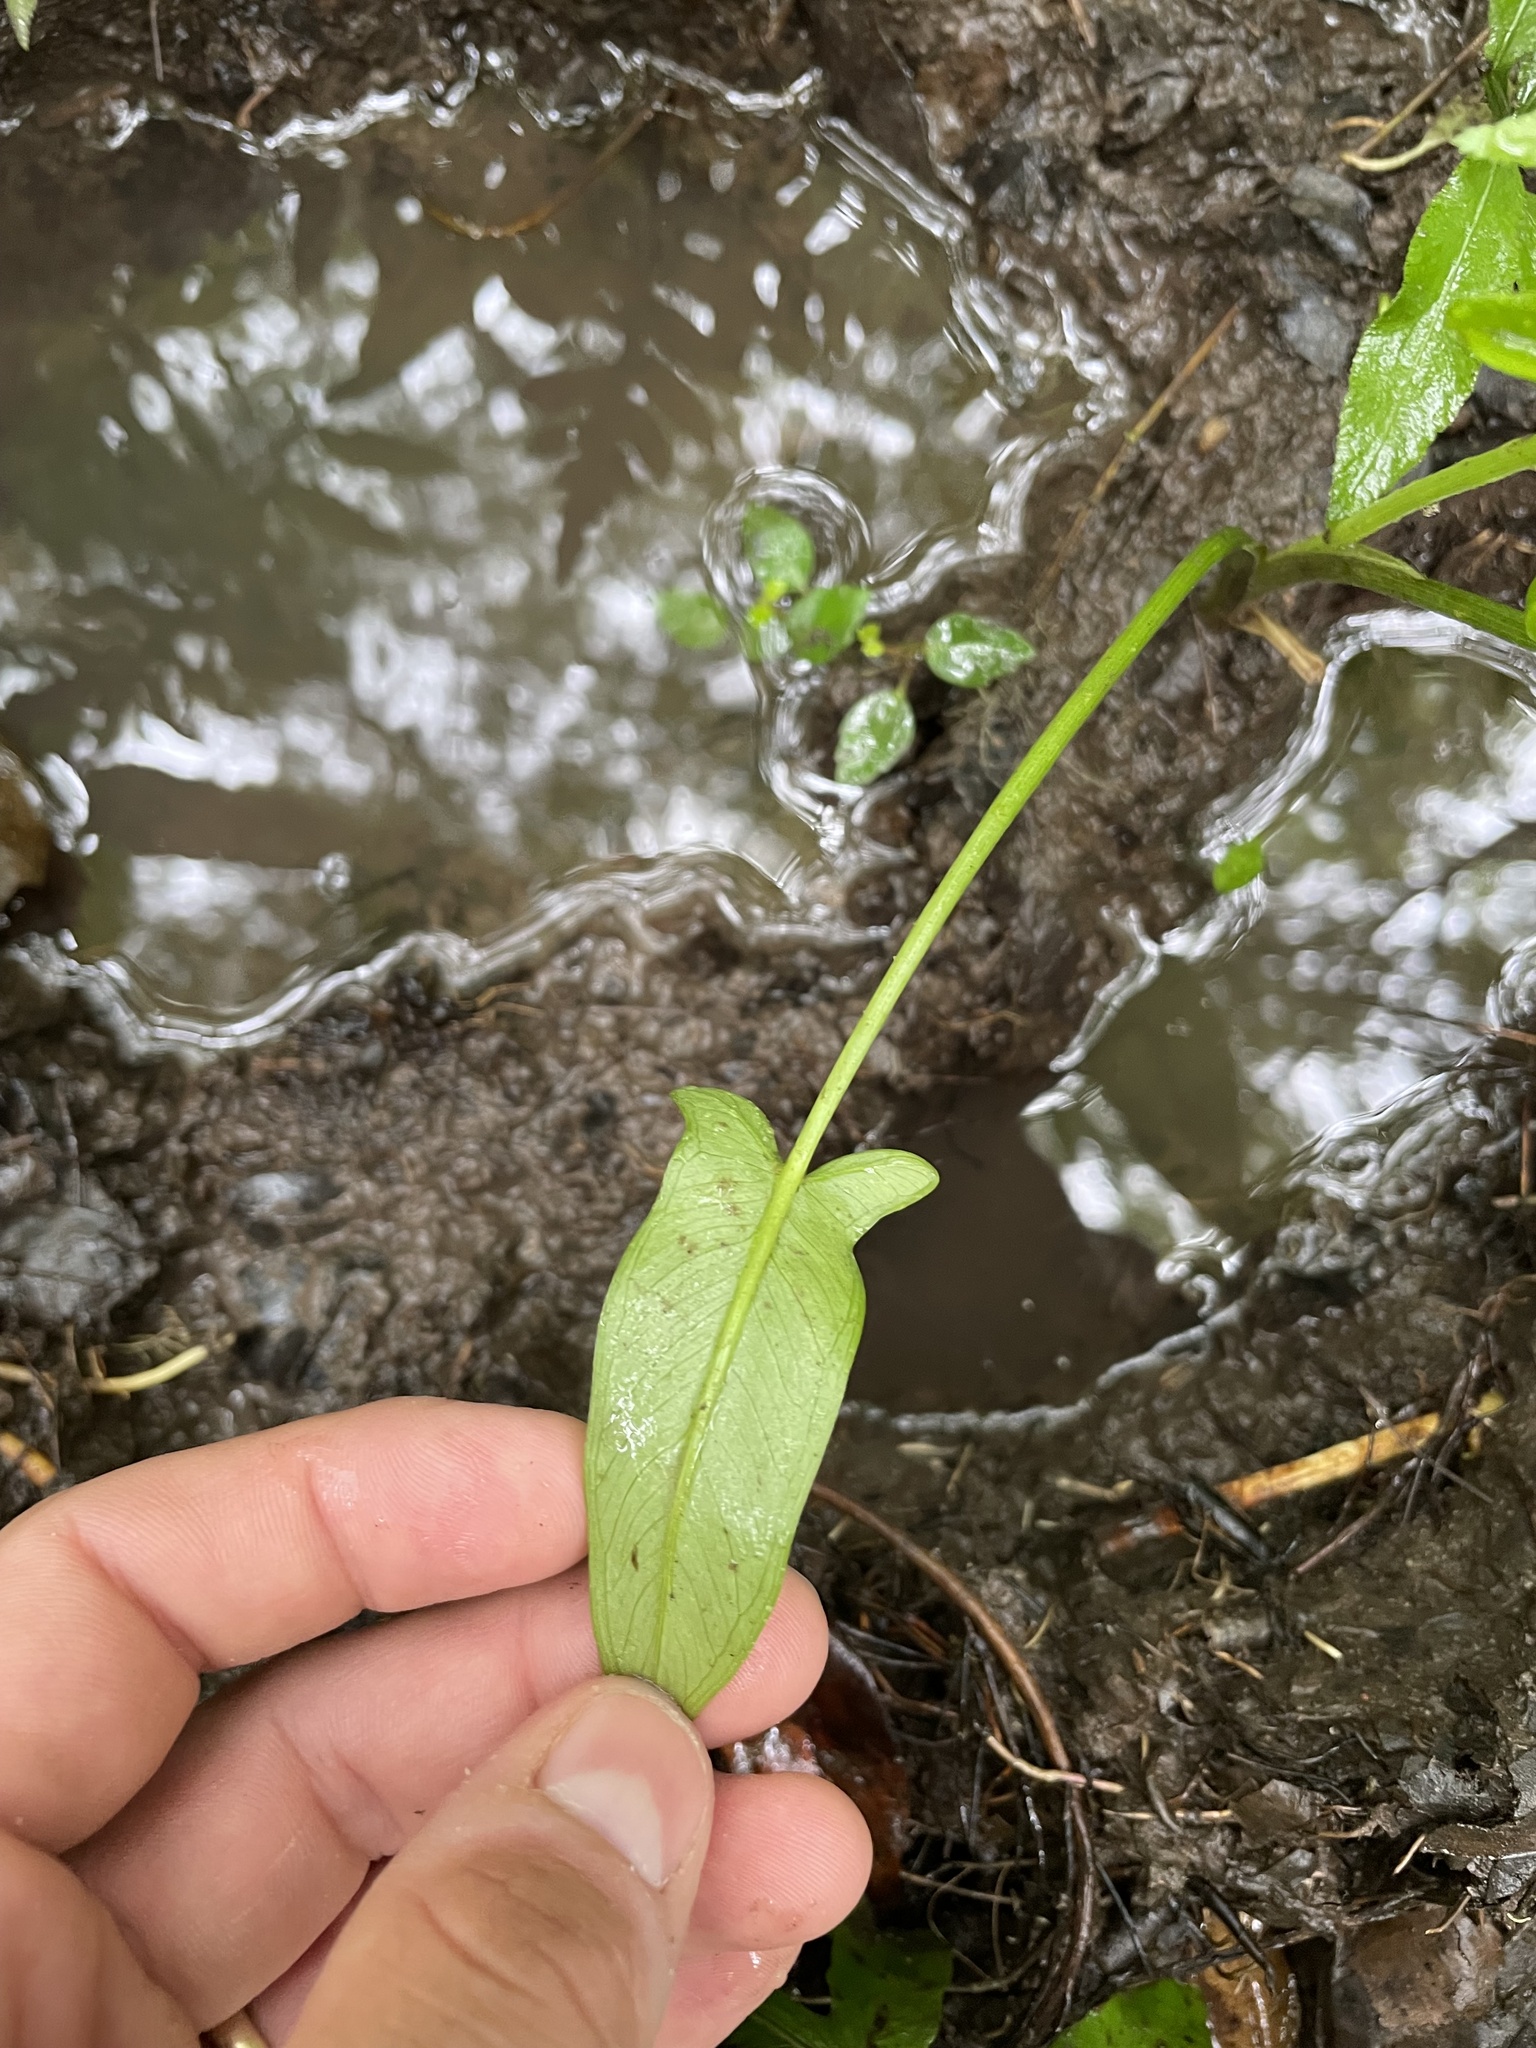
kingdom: Plantae
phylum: Tracheophyta
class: Liliopsida
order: Alismatales
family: Araceae
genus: Peltandra
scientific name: Peltandra virginica
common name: Arrow arum
